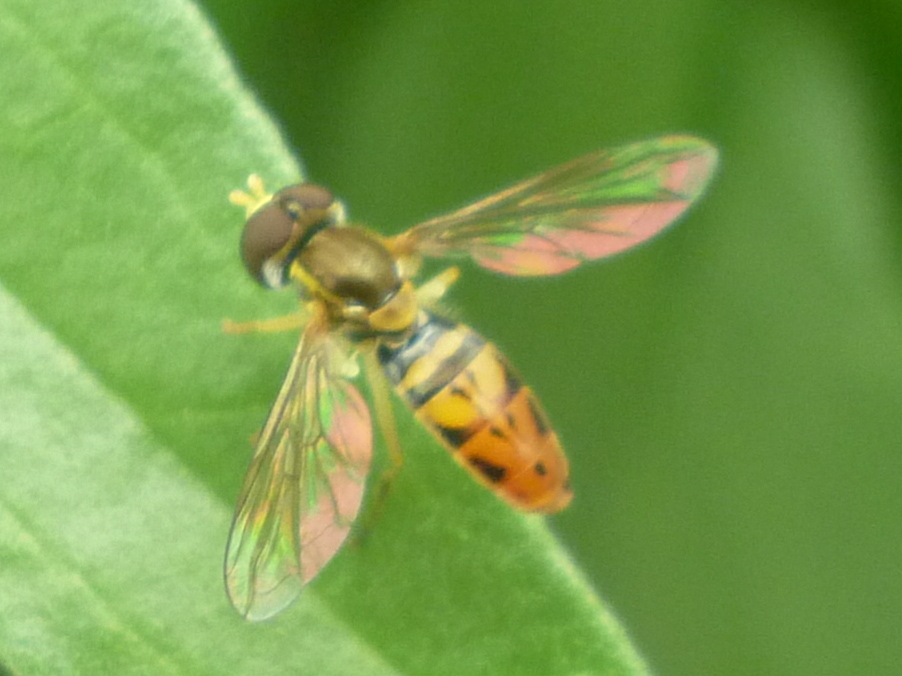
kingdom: Animalia
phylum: Arthropoda
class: Insecta
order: Diptera
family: Syrphidae
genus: Toxomerus
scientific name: Toxomerus marginatus
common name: Syrphid fly
